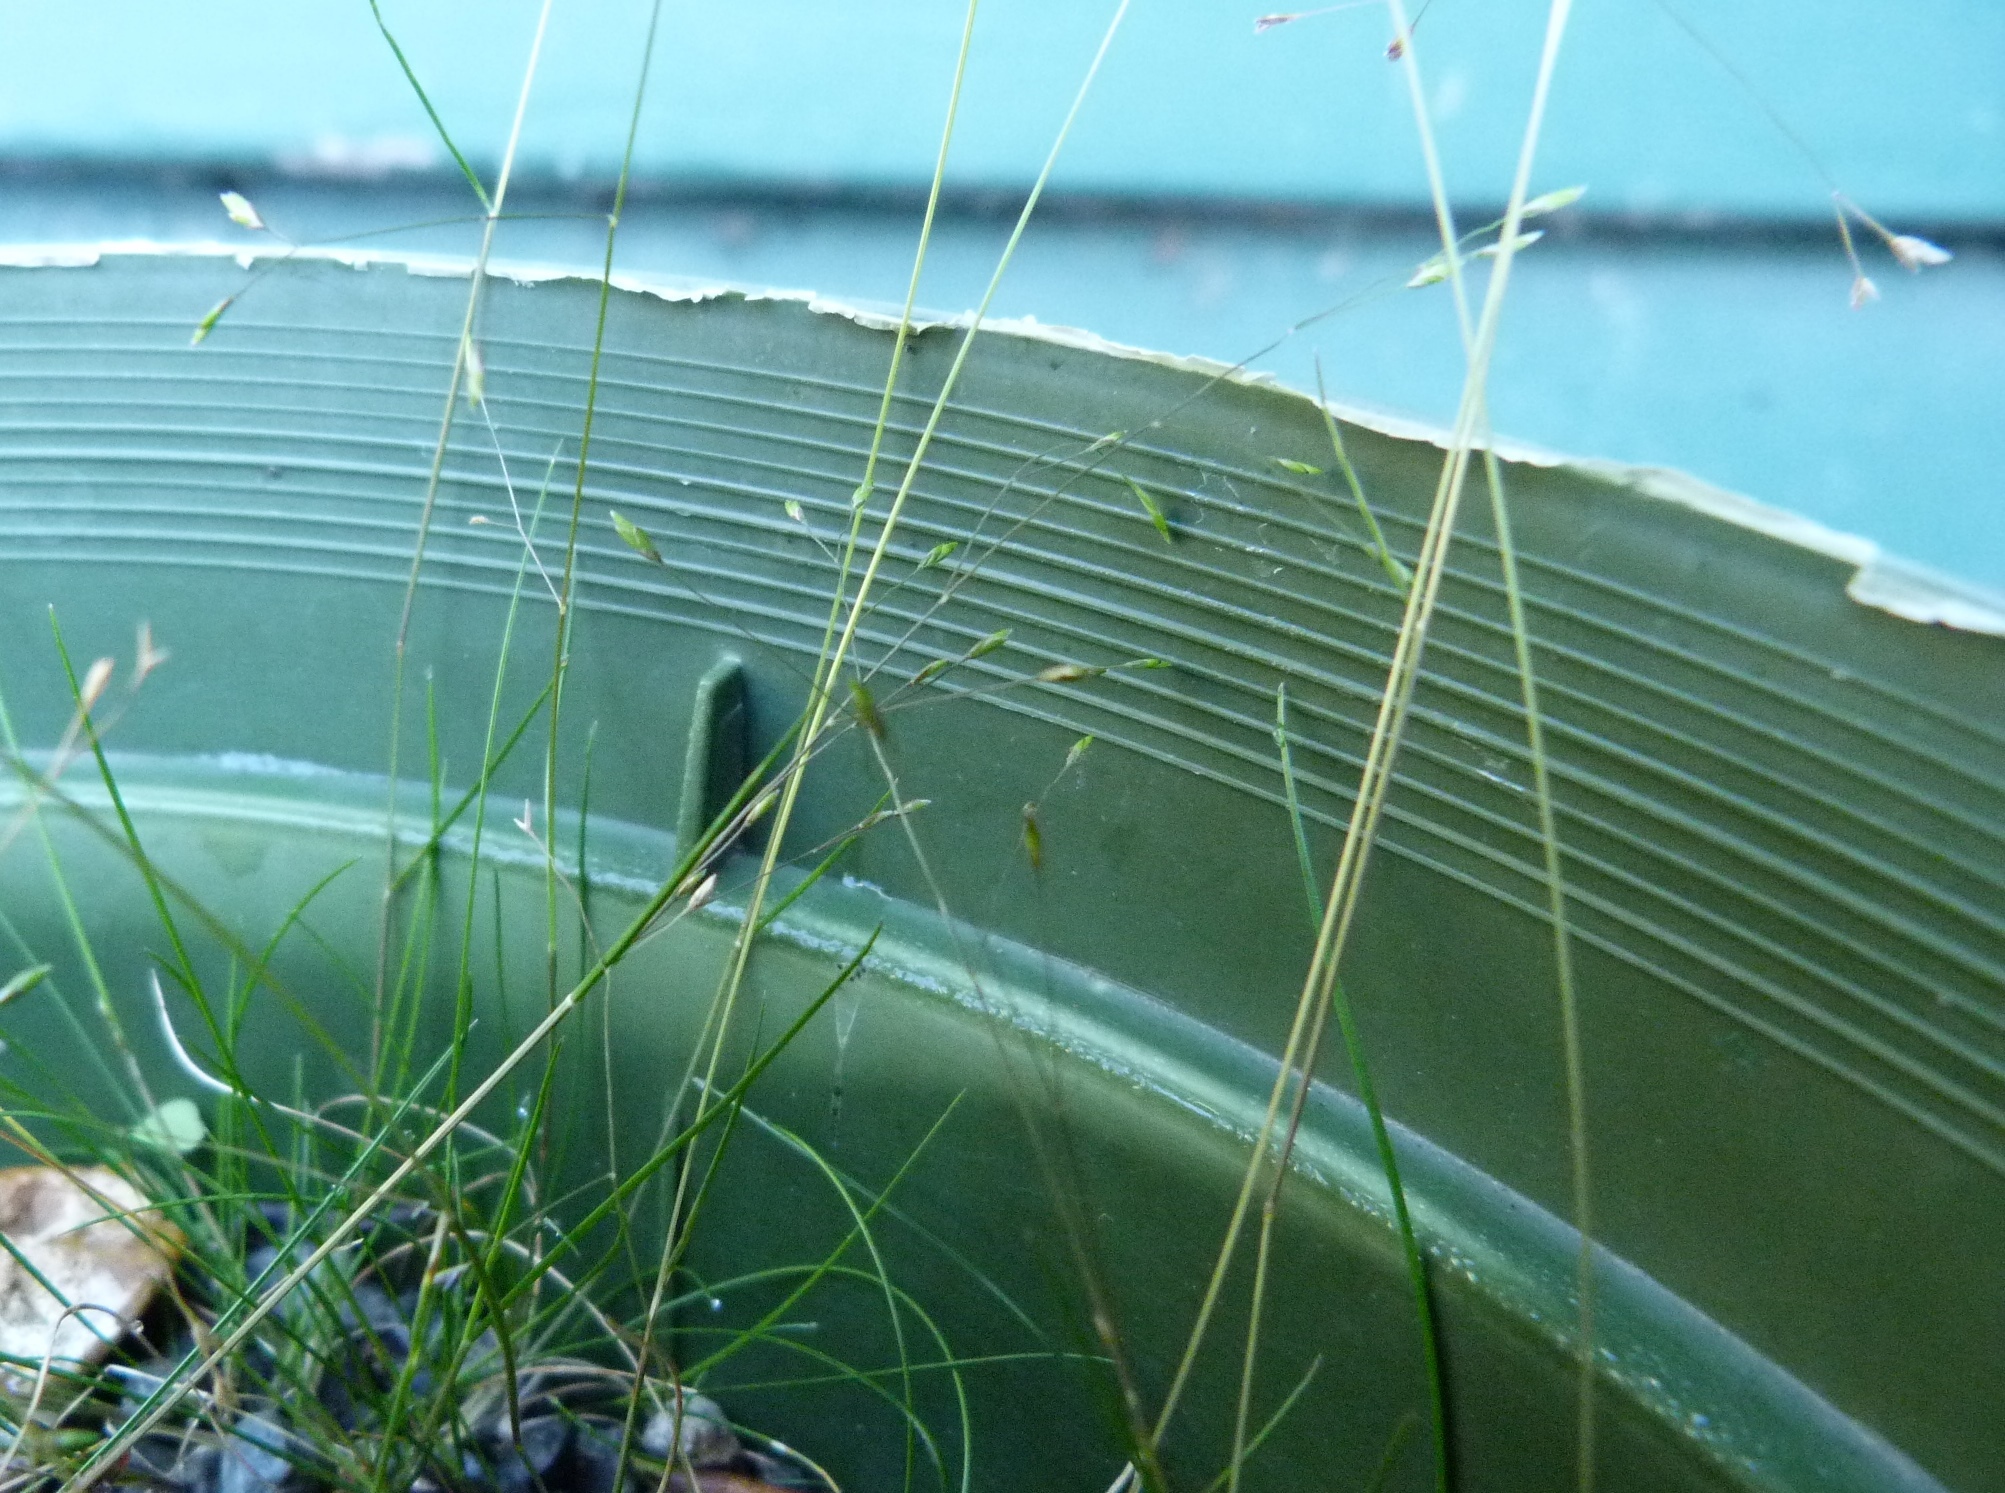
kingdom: Plantae
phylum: Tracheophyta
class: Liliopsida
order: Poales
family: Poaceae
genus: Poa
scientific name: Poa imbecilla
